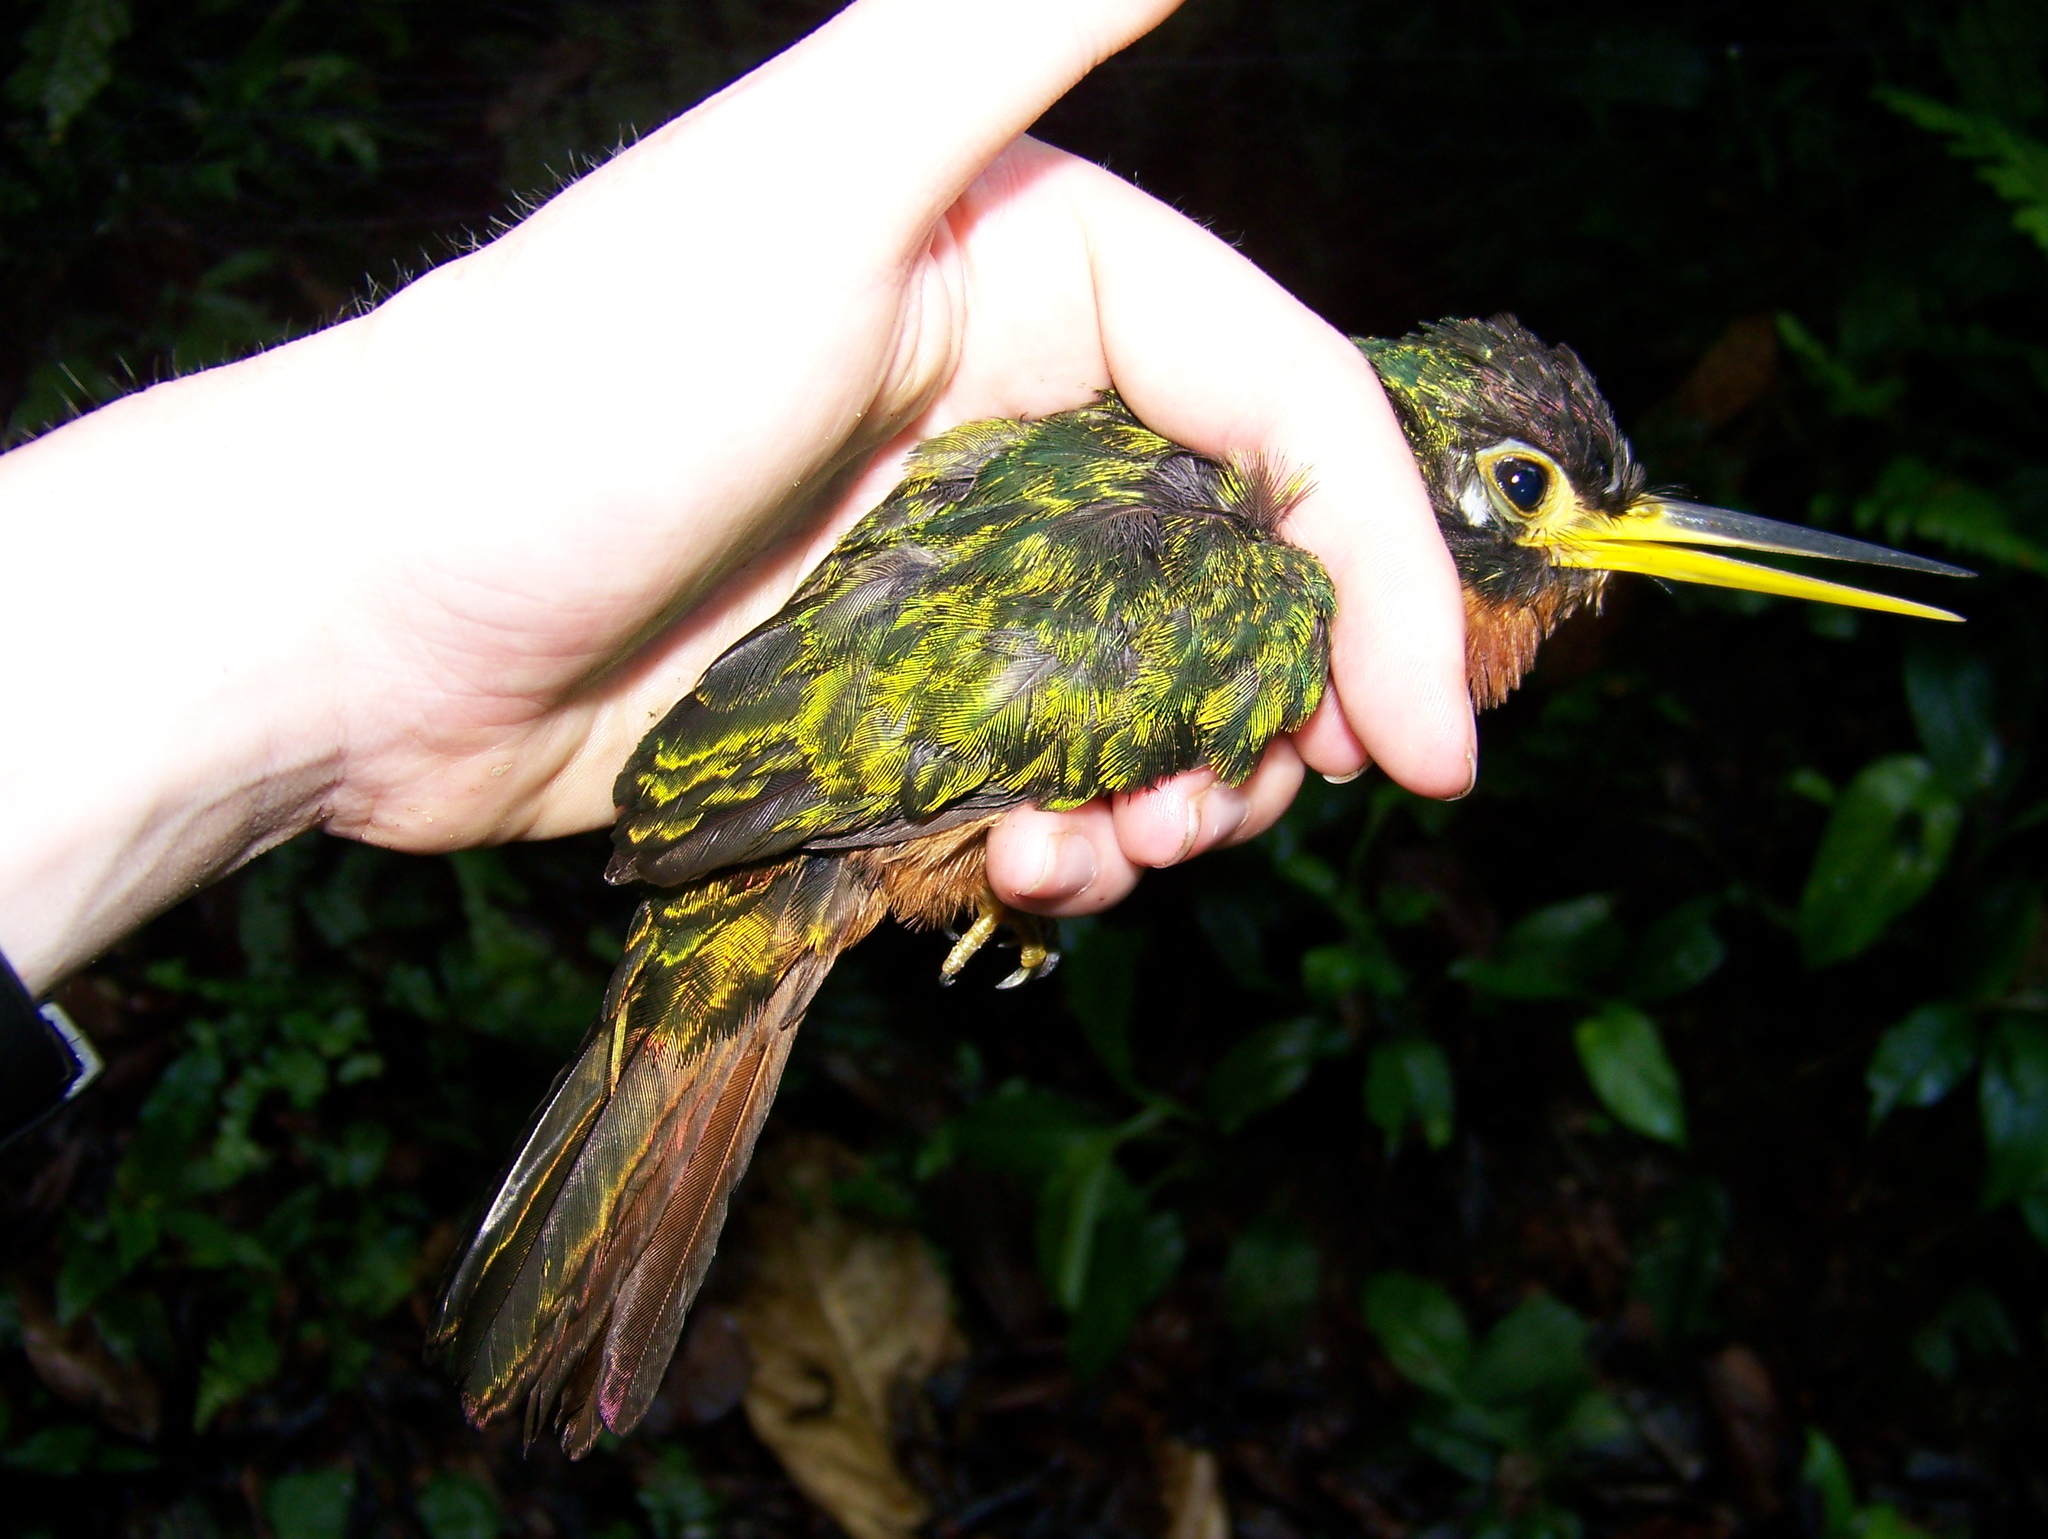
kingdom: Animalia
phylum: Chordata
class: Aves
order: Piciformes
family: Galbulidae
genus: Galbula
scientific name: Galbula albirostris
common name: Yellow-billed jacamar
